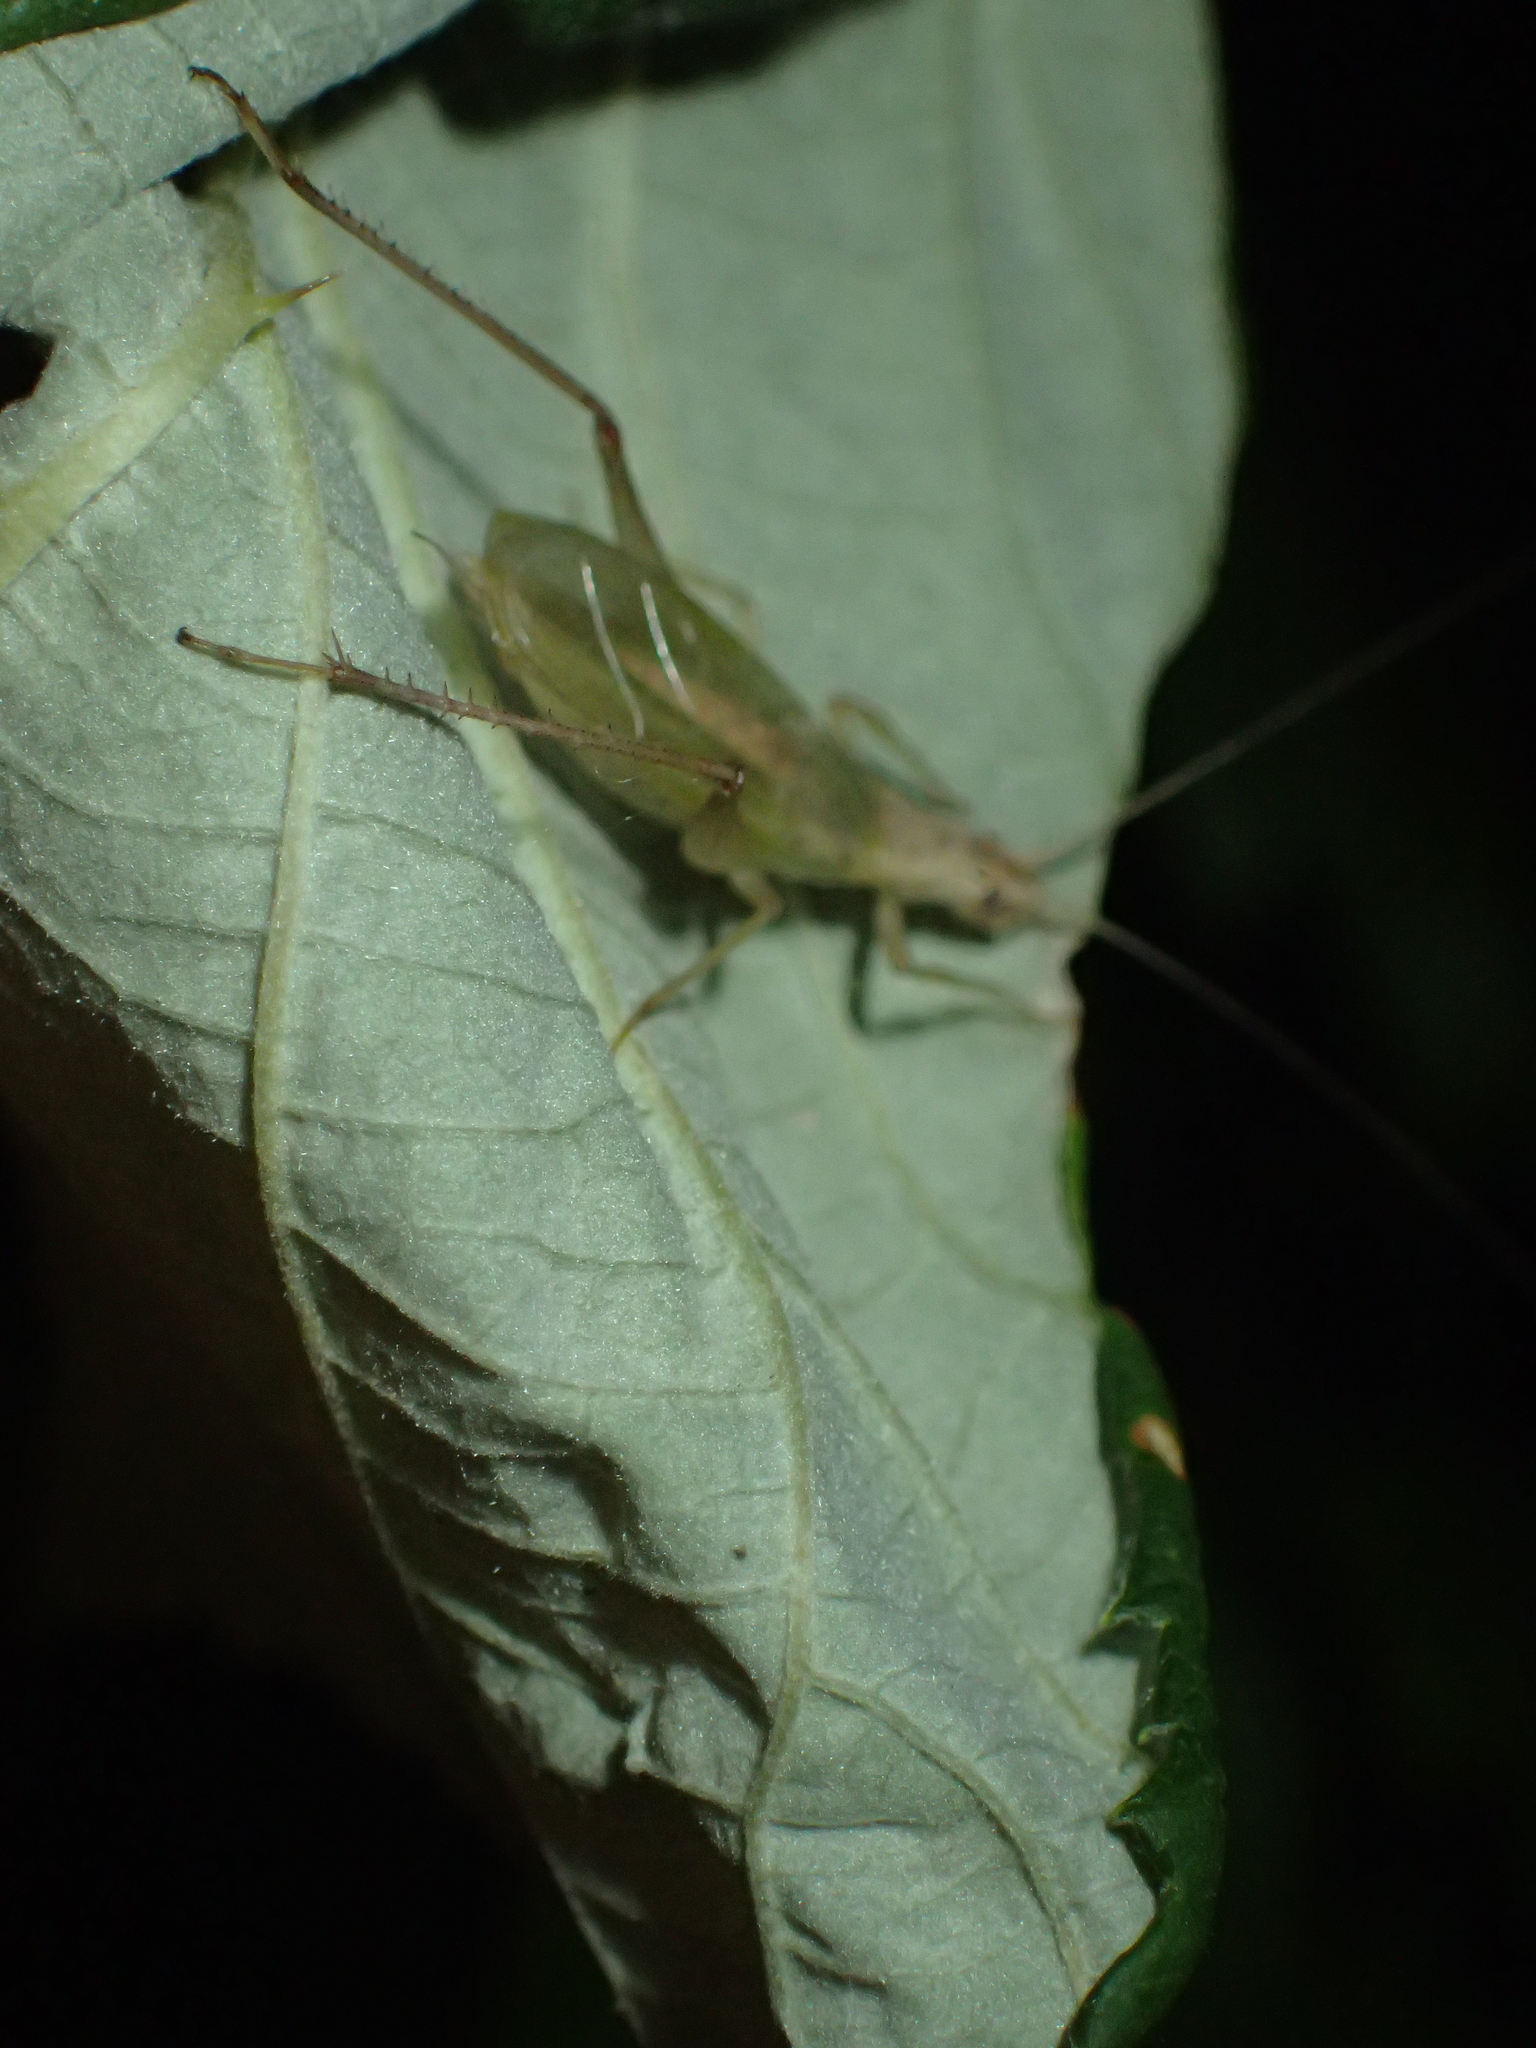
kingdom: Animalia
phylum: Arthropoda
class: Insecta
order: Orthoptera
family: Gryllidae
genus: Oecanthus
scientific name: Oecanthus pellucens
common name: Tree-cricket
